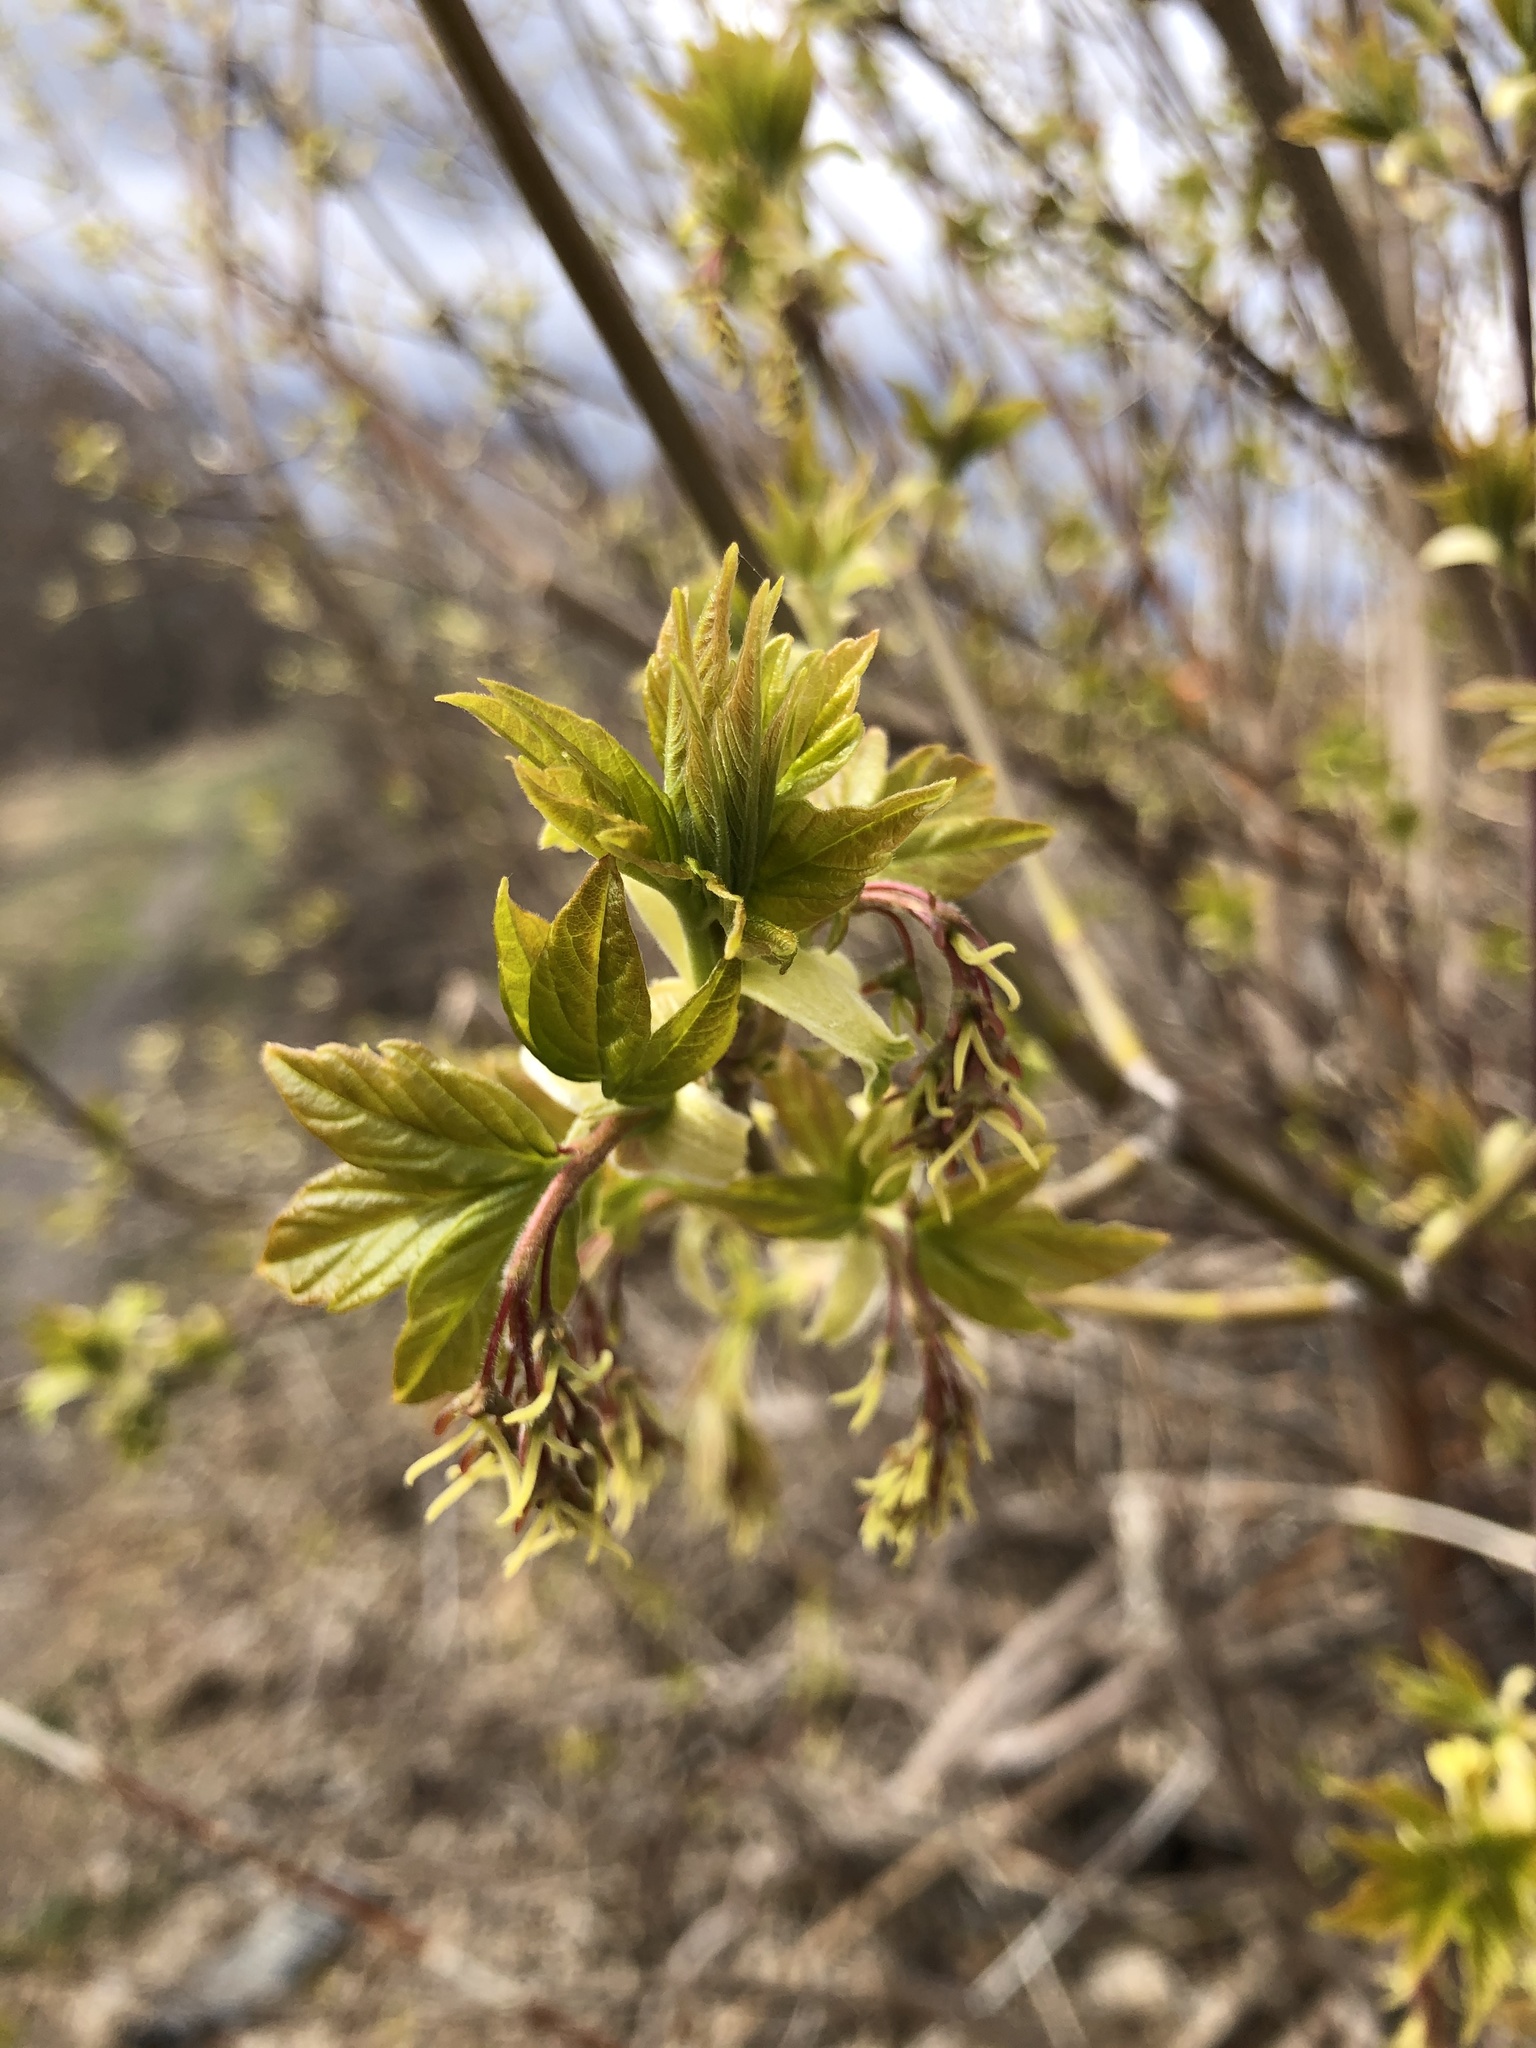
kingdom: Plantae
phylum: Tracheophyta
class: Magnoliopsida
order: Sapindales
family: Sapindaceae
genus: Acer
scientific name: Acer negundo
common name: Ashleaf maple
